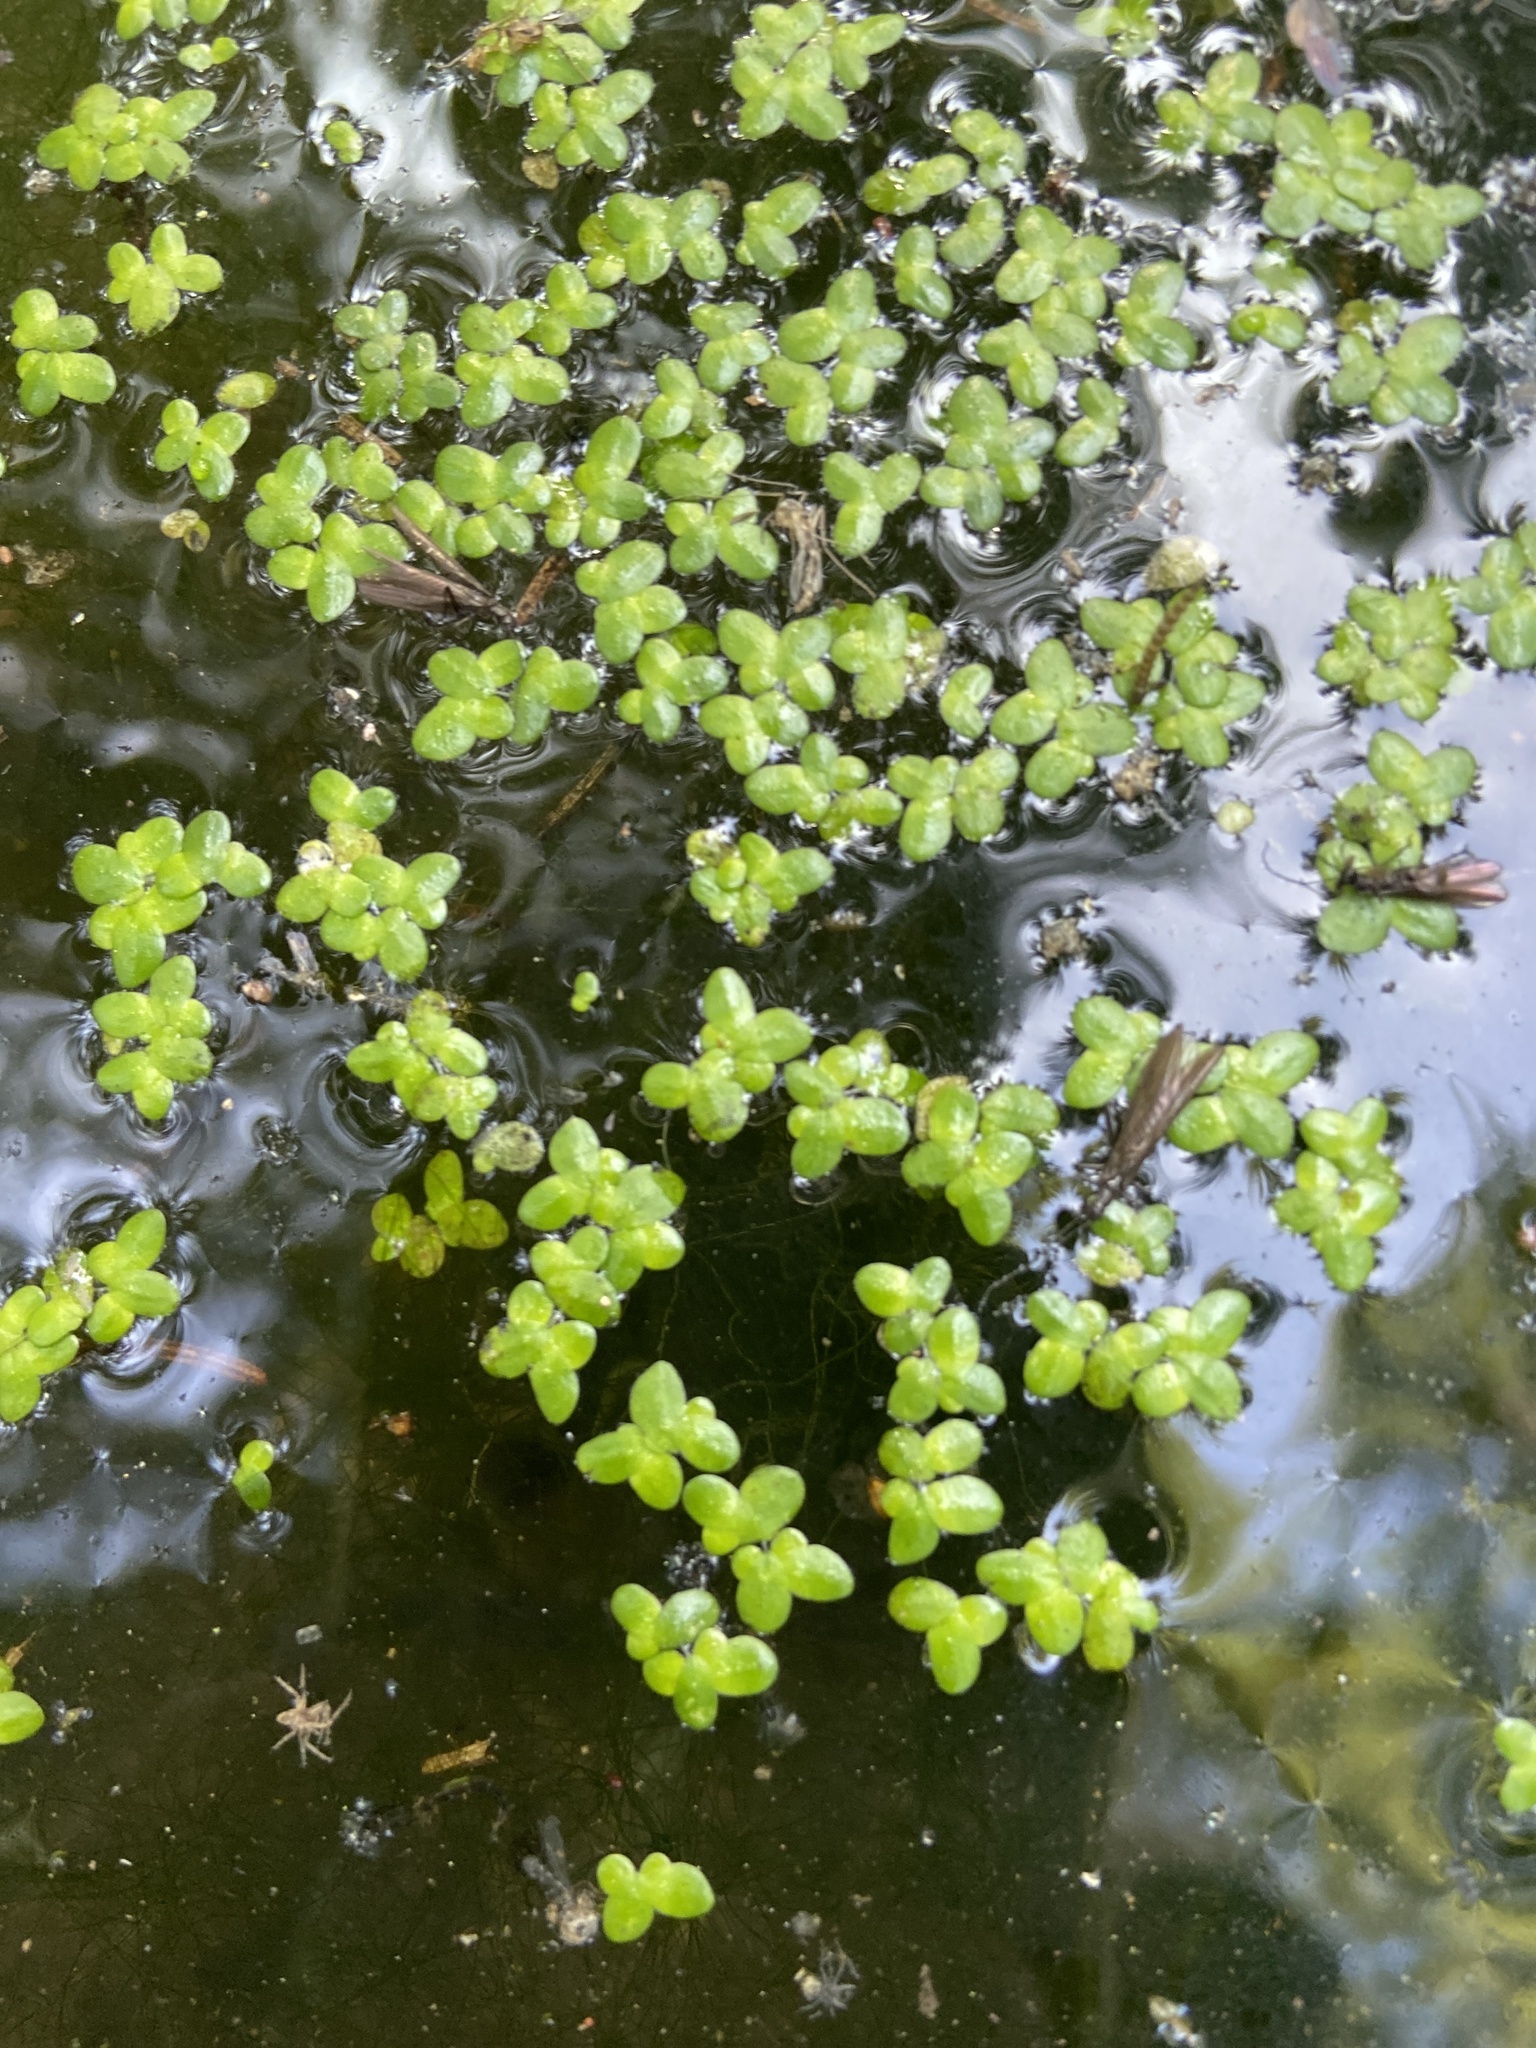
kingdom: Plantae
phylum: Tracheophyta
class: Liliopsida
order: Alismatales
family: Araceae
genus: Lemna
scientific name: Lemna minor
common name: Common duckweed
